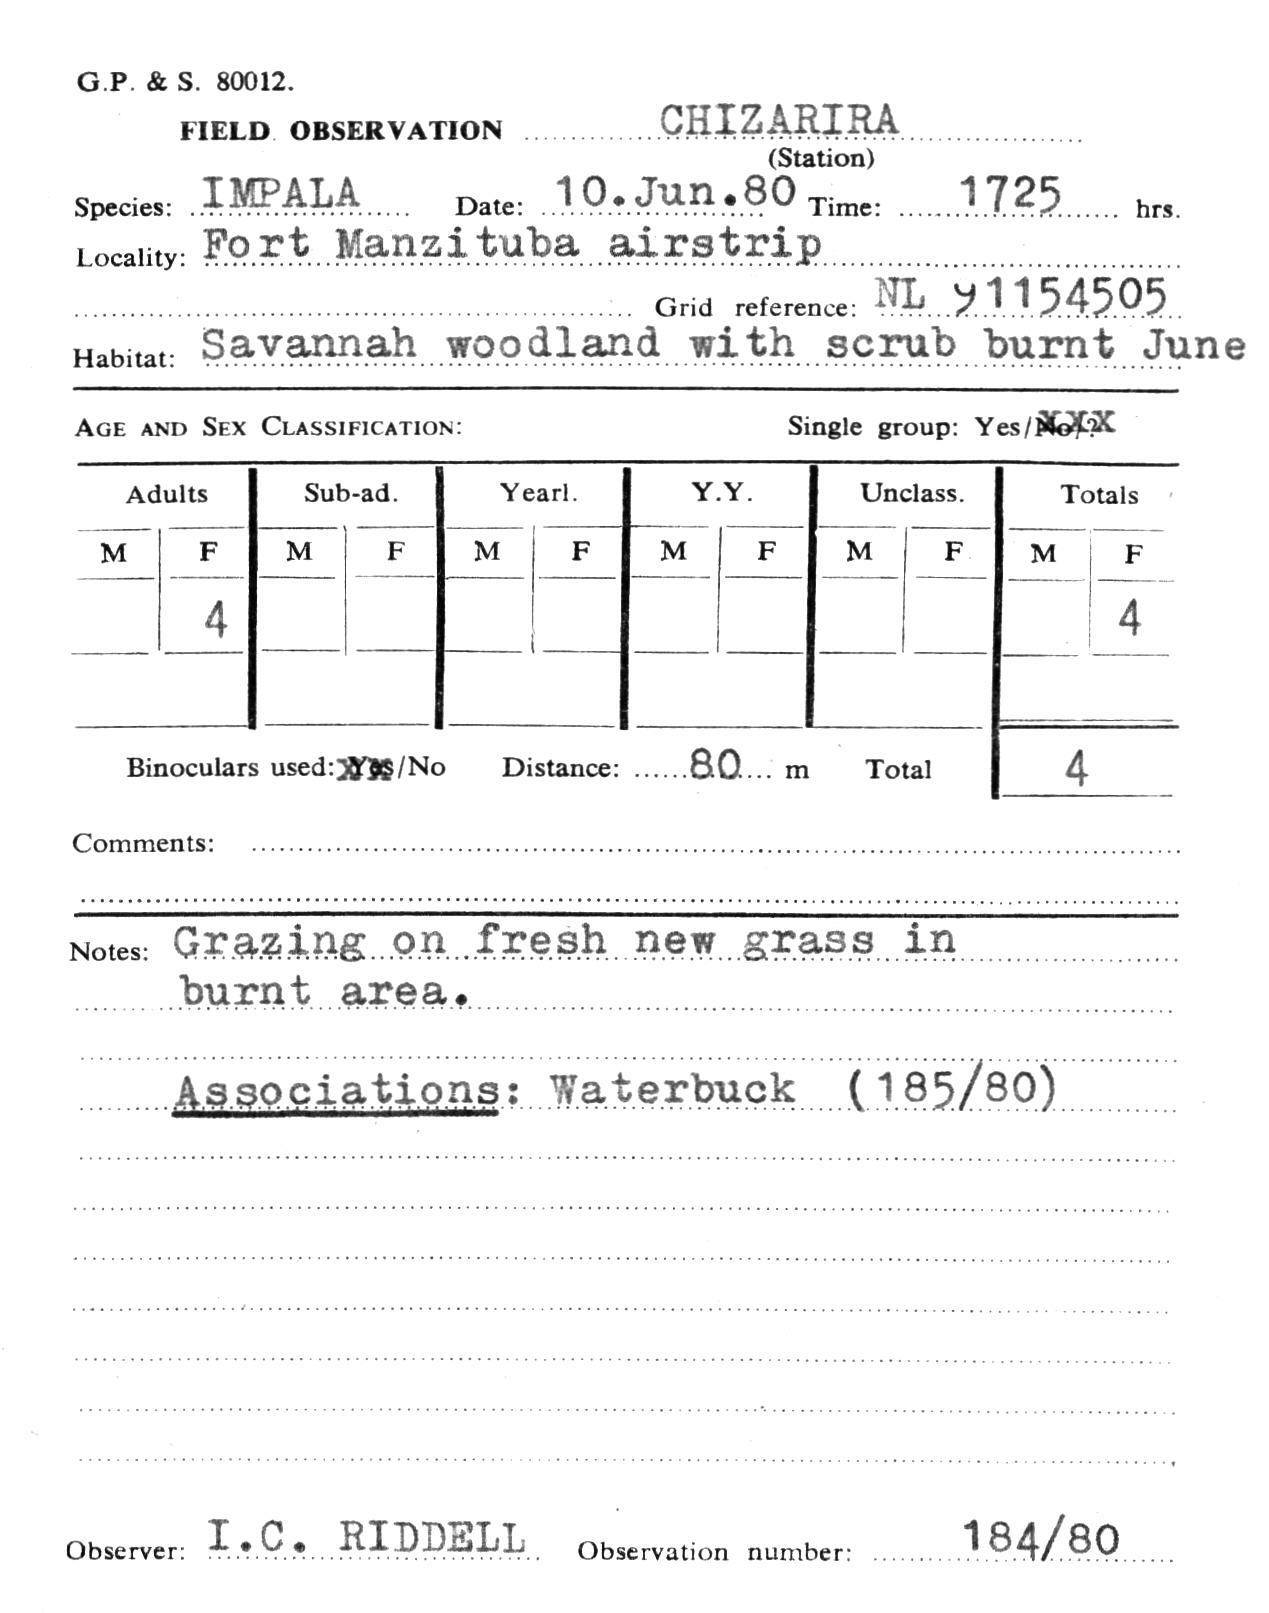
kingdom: Animalia
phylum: Chordata
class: Mammalia
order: Artiodactyla
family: Bovidae
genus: Aepyceros
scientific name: Aepyceros melampus
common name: Impala
